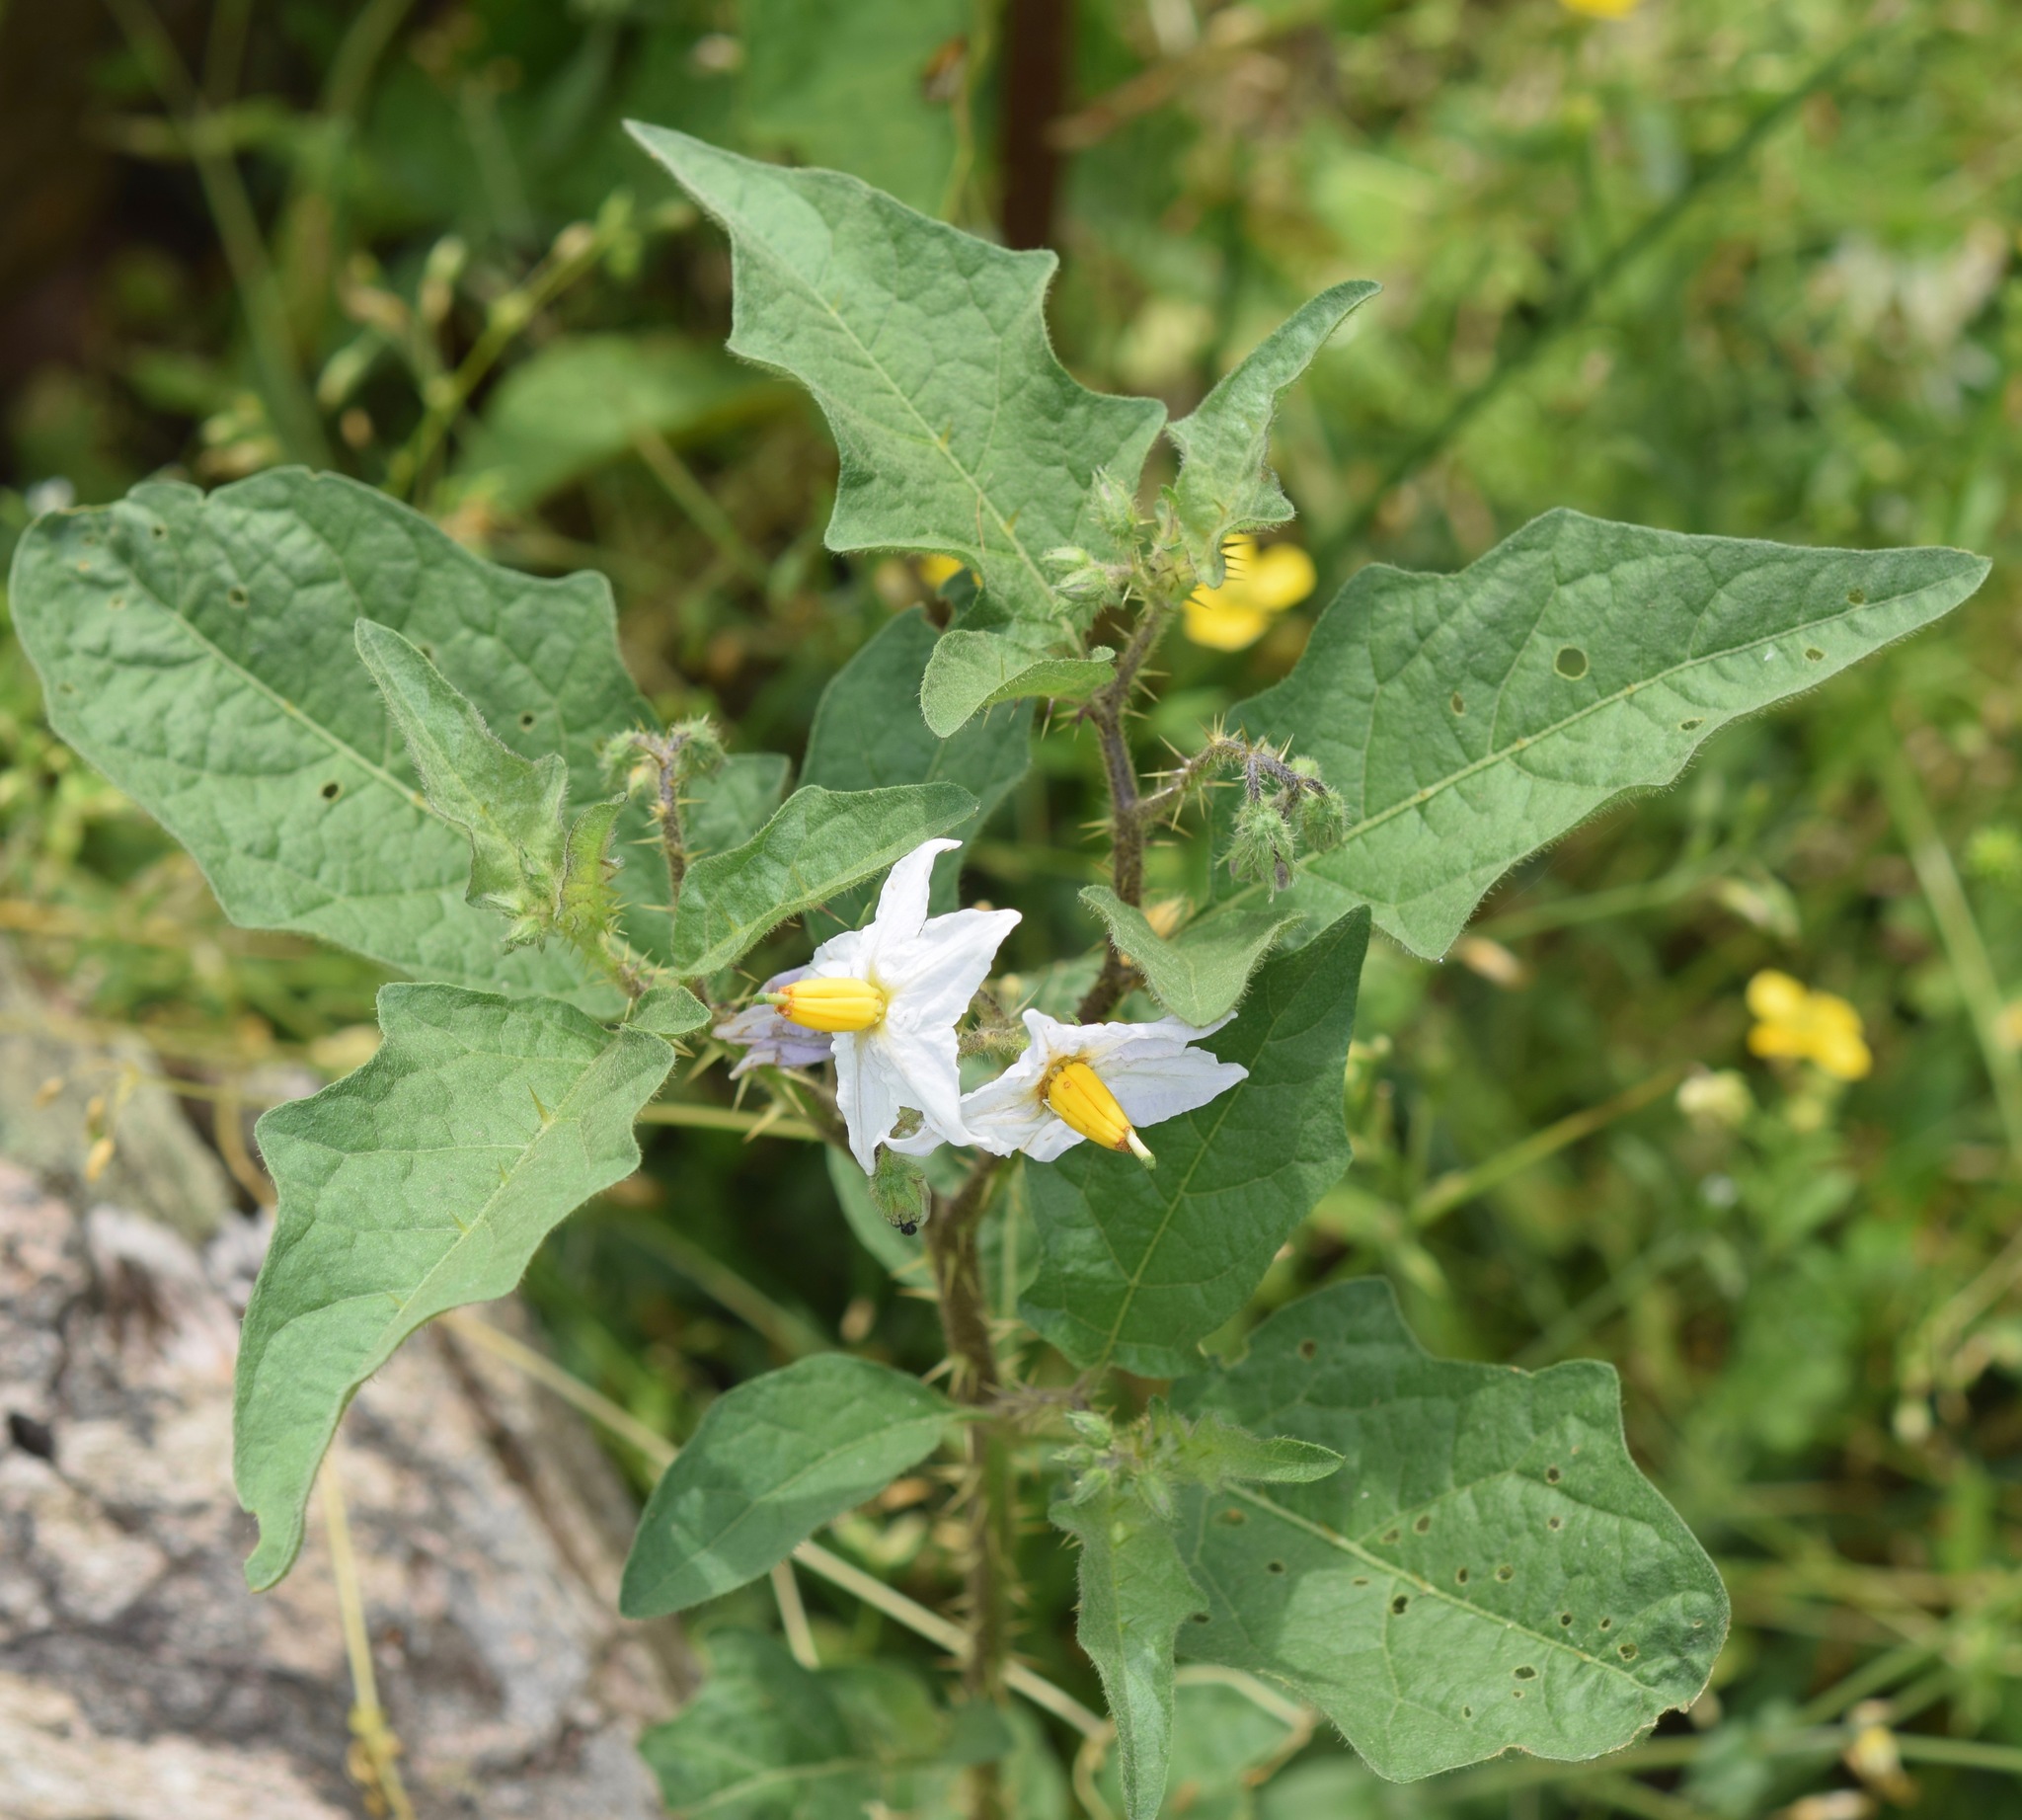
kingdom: Plantae
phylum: Tracheophyta
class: Magnoliopsida
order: Solanales
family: Solanaceae
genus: Solanum
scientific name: Solanum carolinense
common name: Horse-nettle
